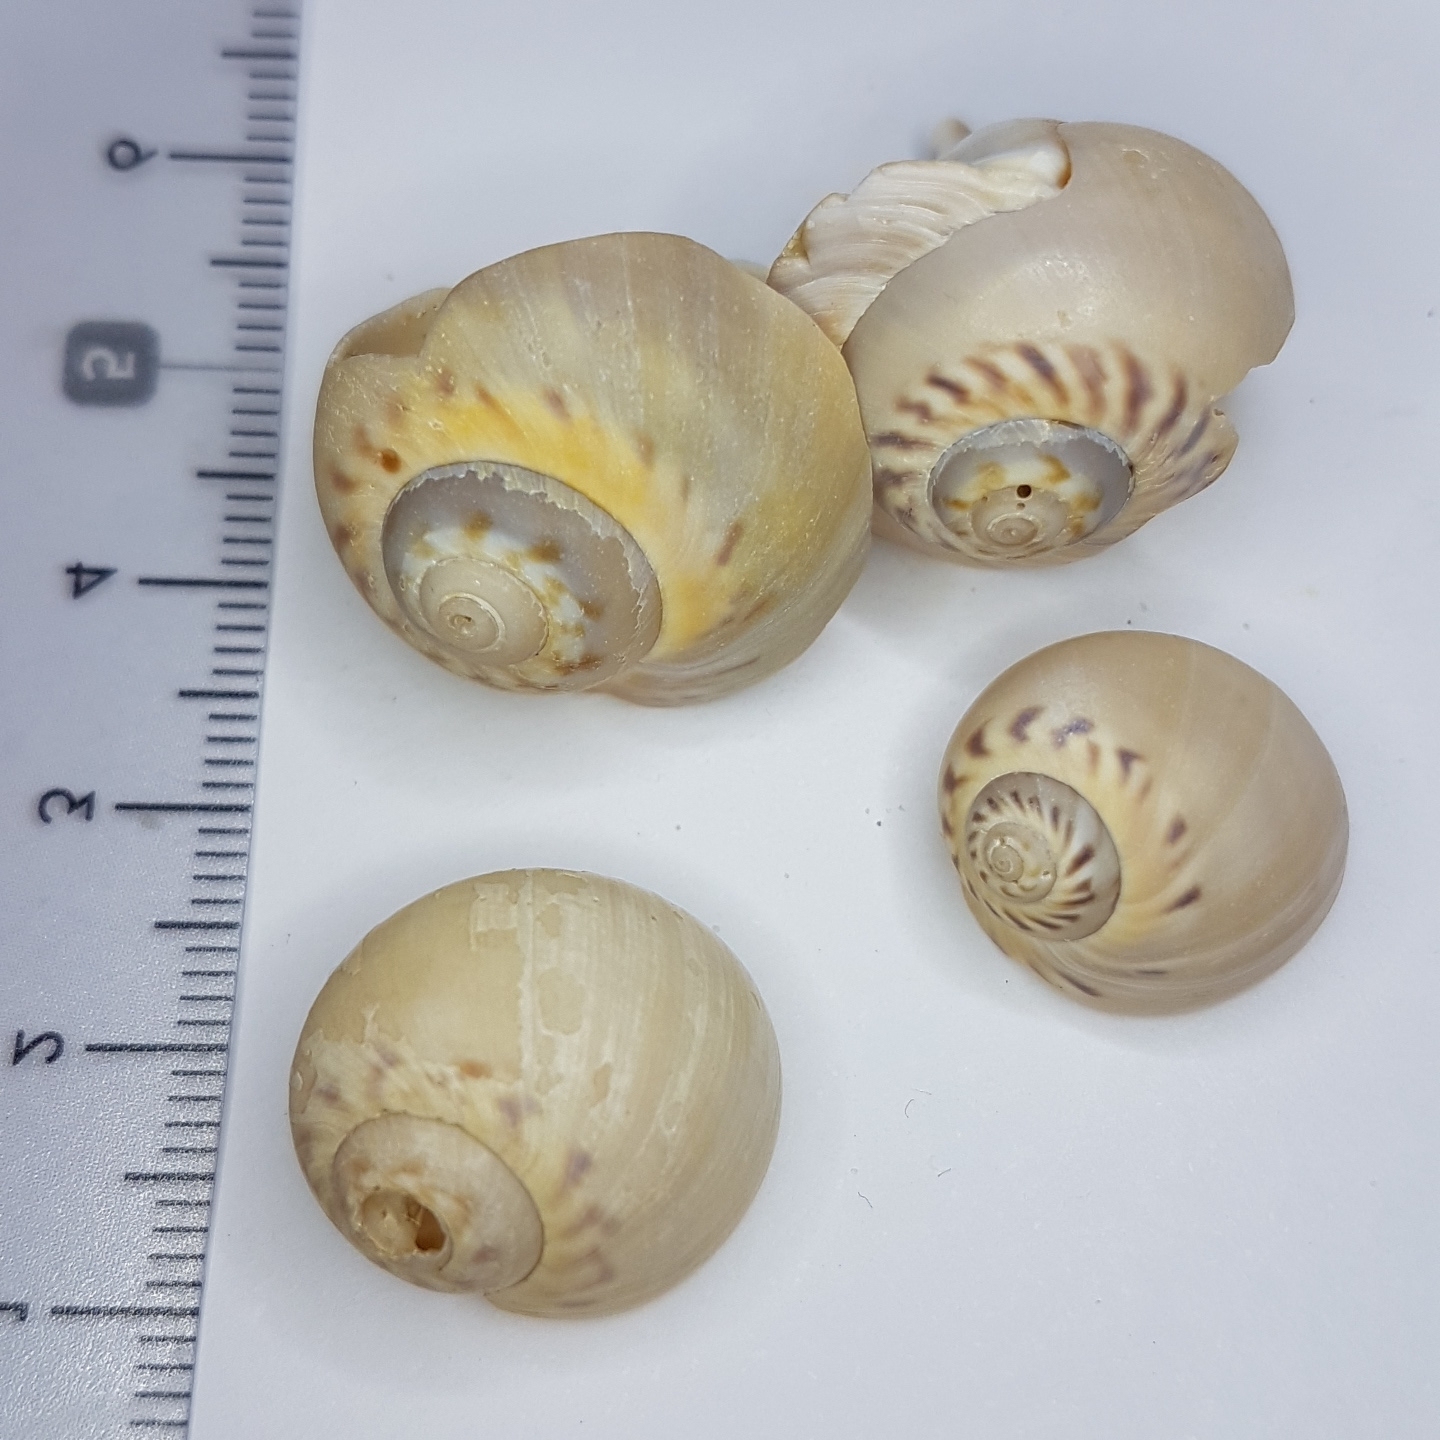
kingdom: Animalia
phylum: Mollusca
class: Gastropoda
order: Littorinimorpha
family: Naticidae
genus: Euspira
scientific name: Euspira catena
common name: Necklace shell
